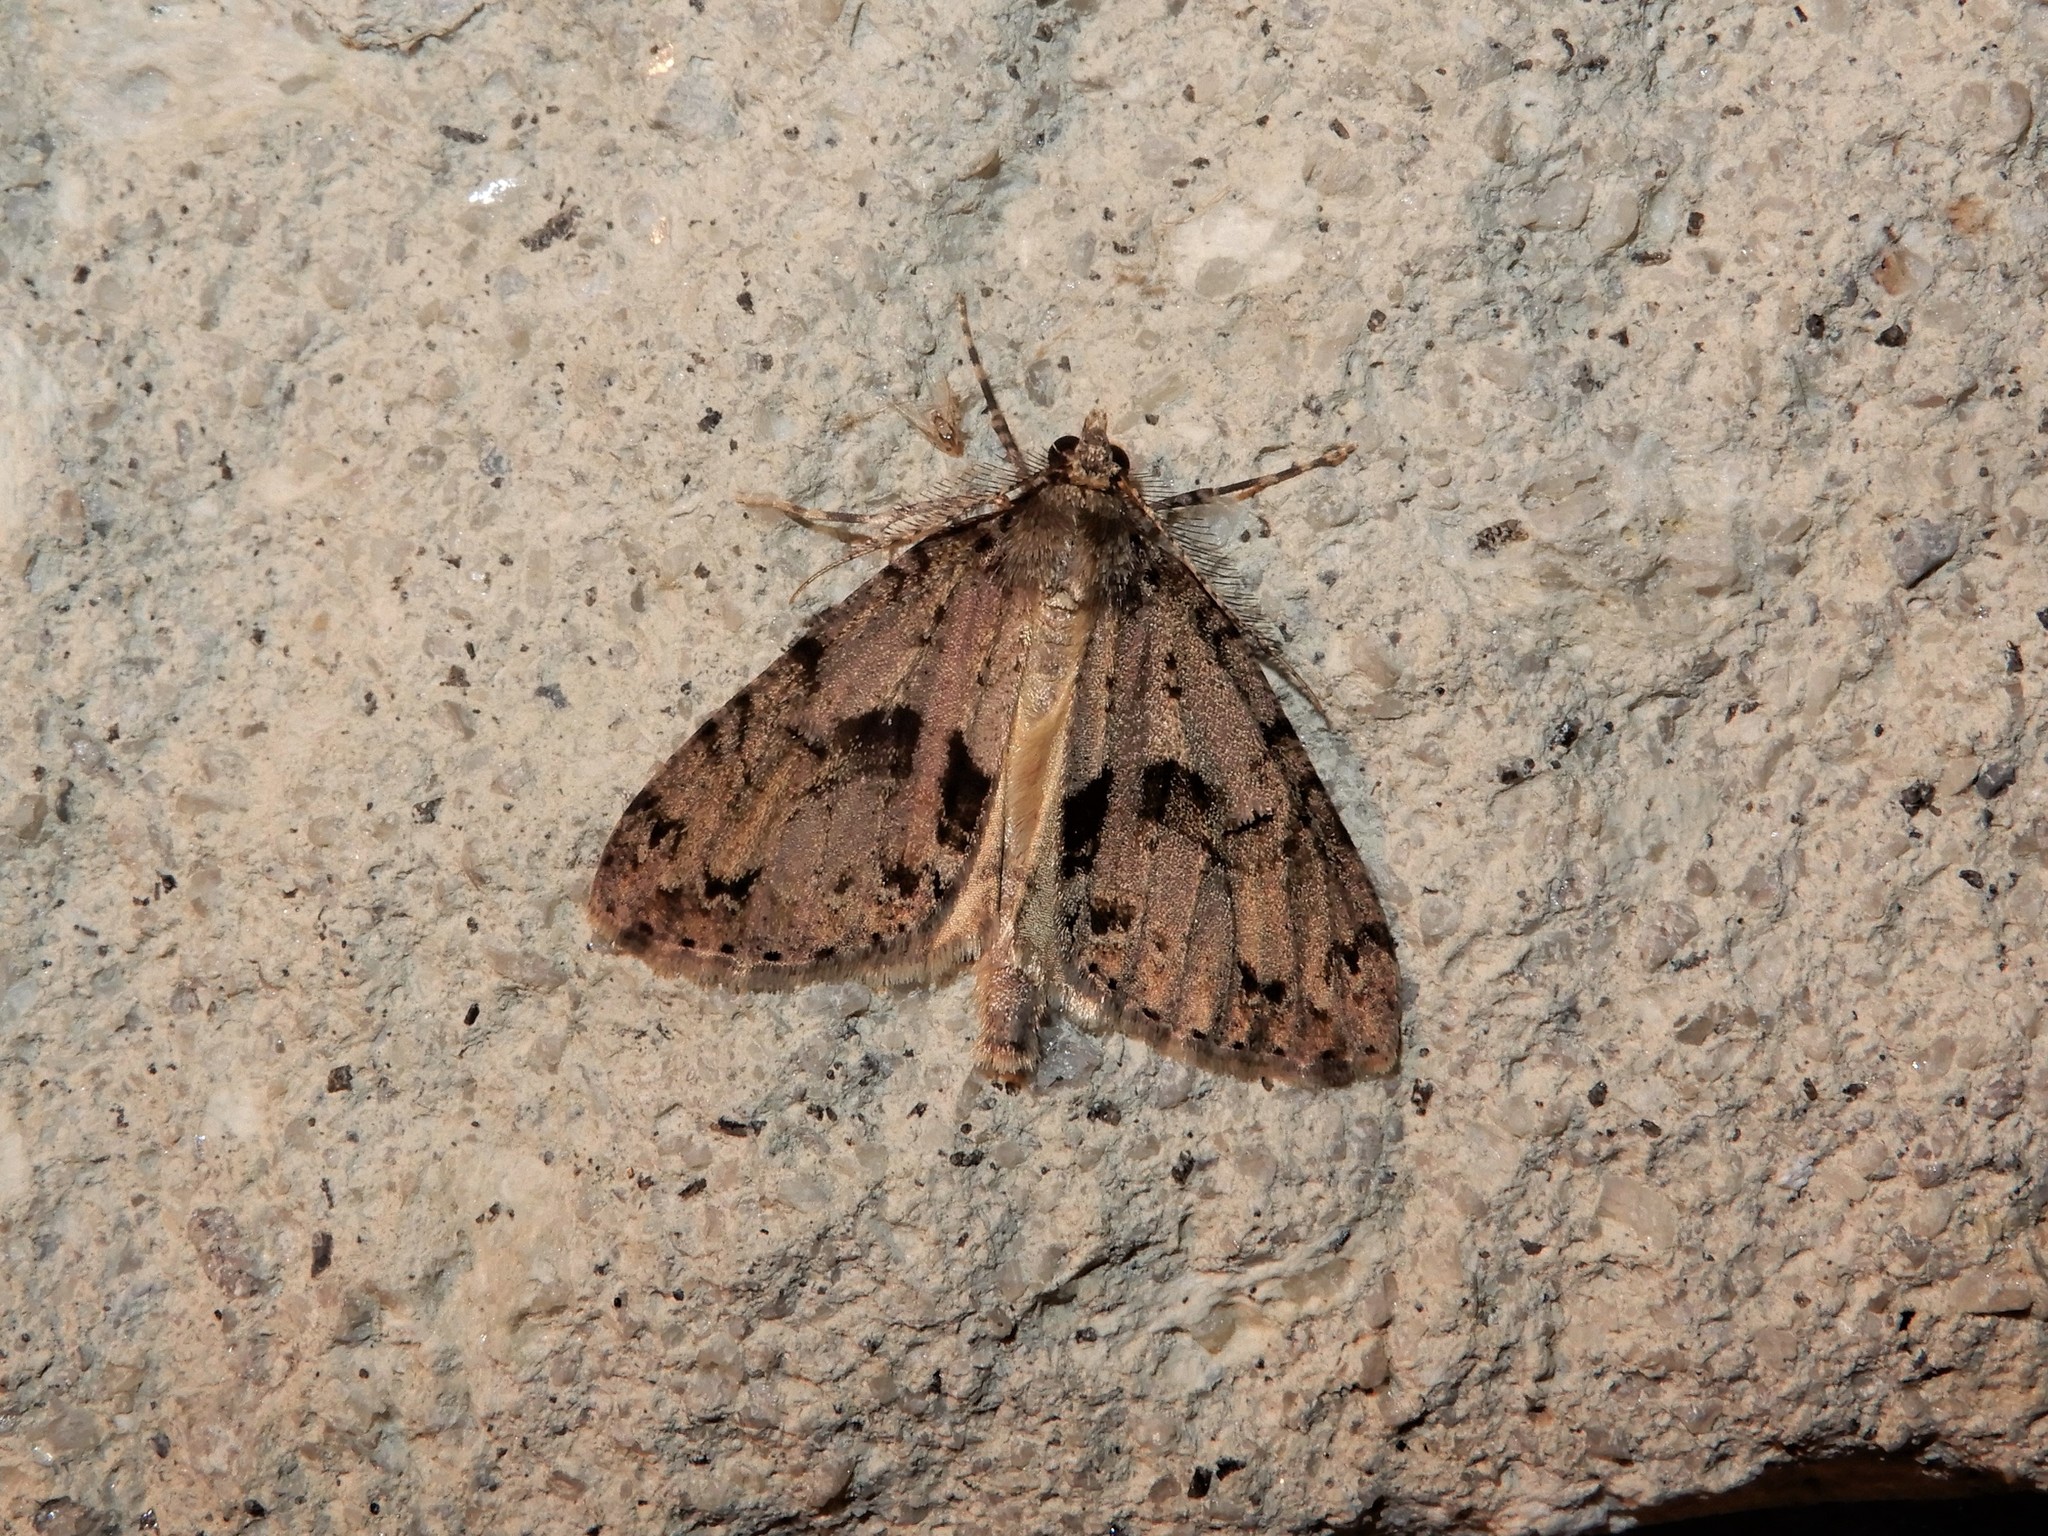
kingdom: Animalia
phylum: Arthropoda
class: Insecta
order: Lepidoptera
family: Geometridae
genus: Pseudocoremia
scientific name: Pseudocoremia suavis
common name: Common forest looper
